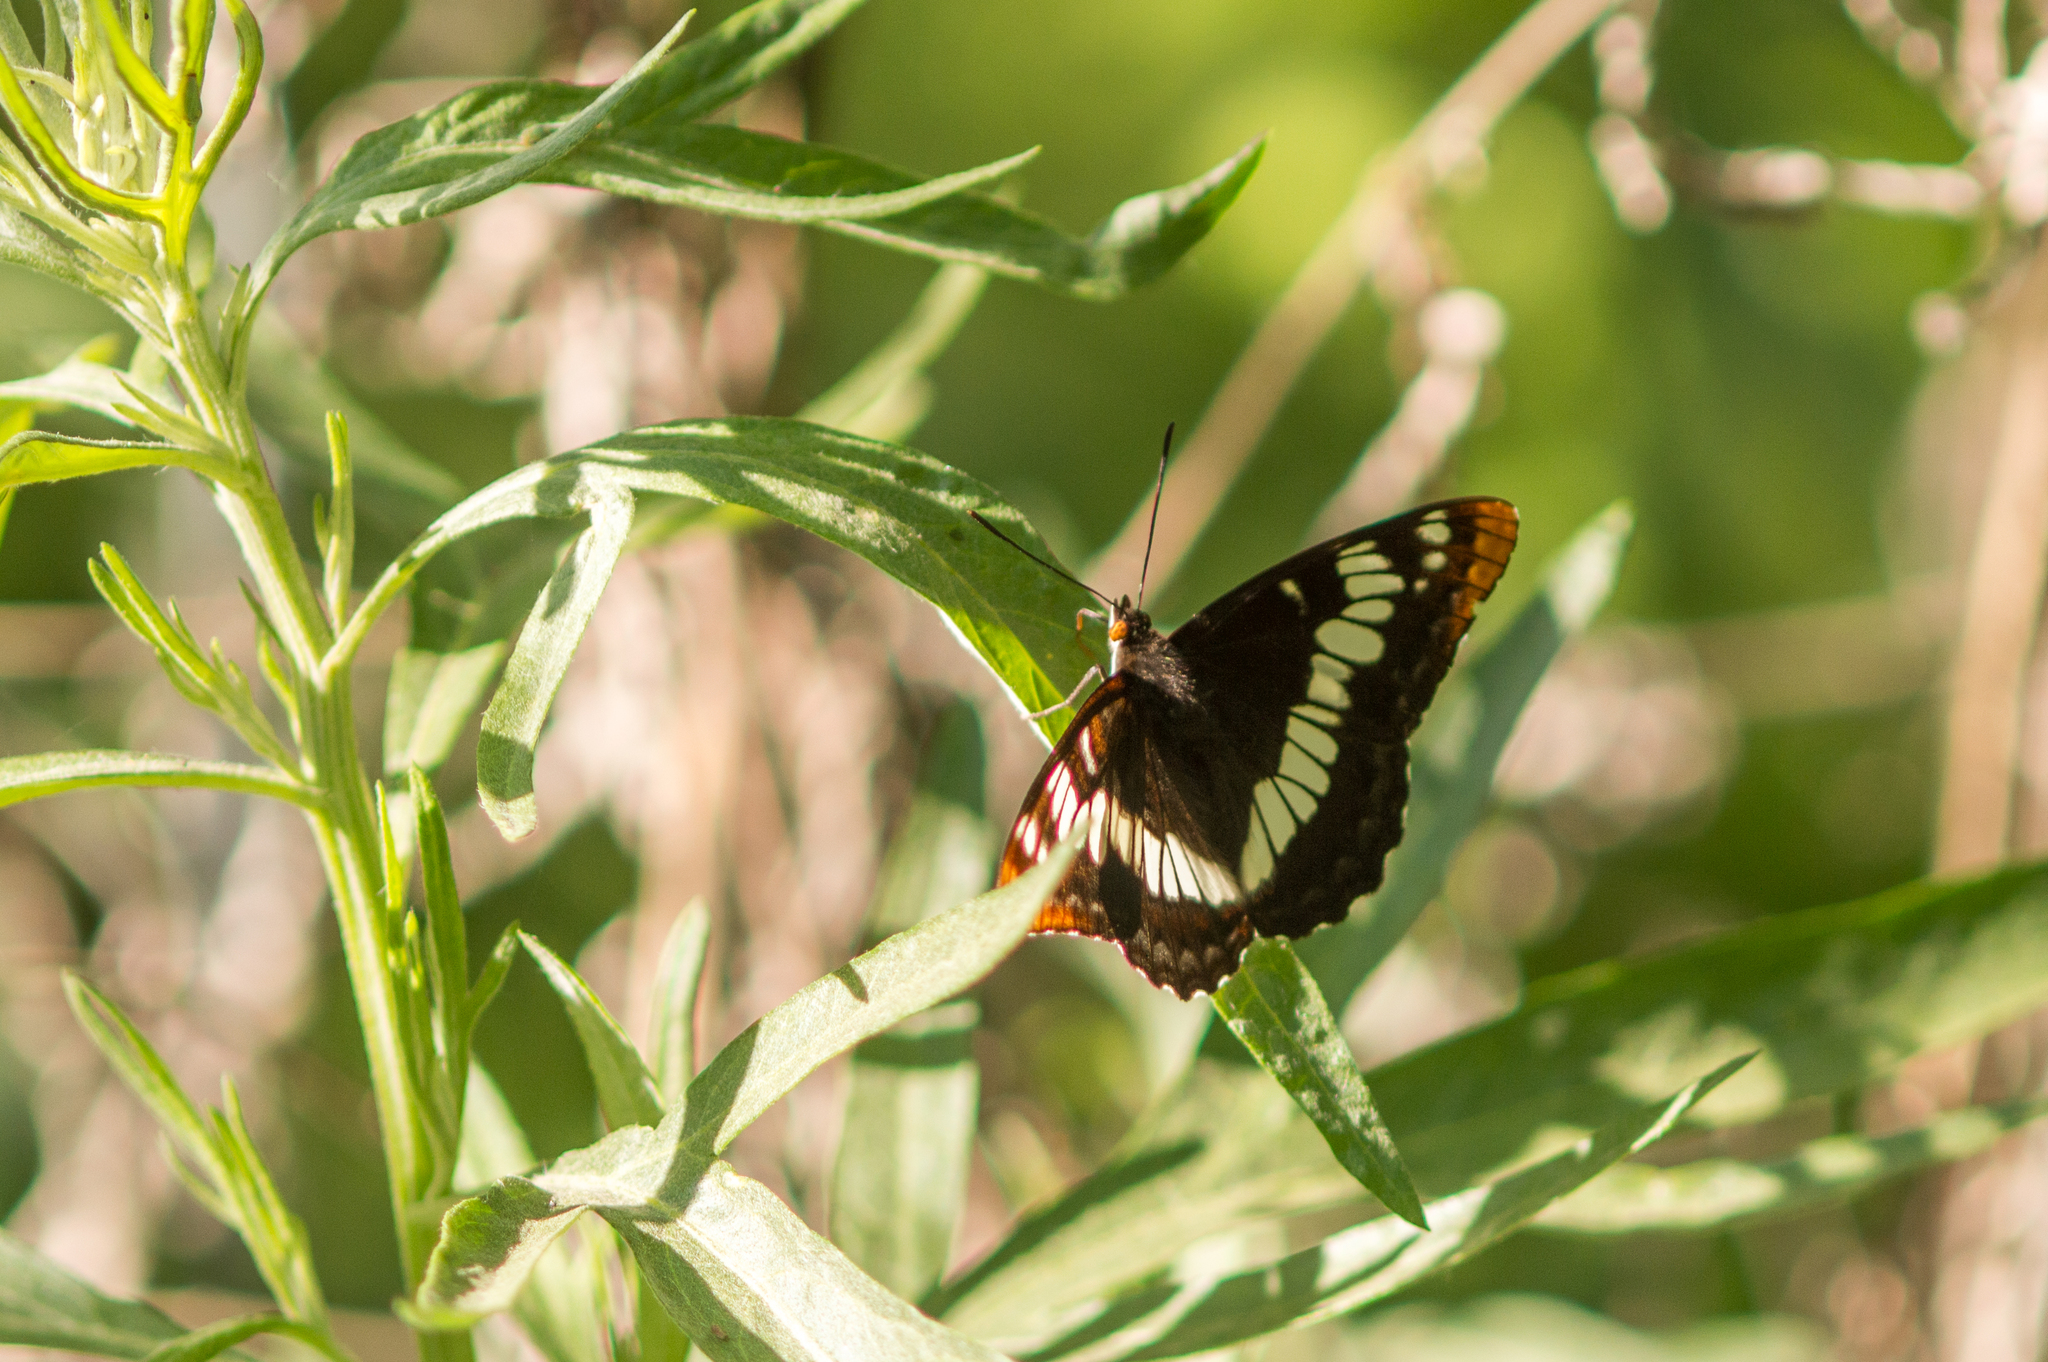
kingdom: Animalia
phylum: Arthropoda
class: Insecta
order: Lepidoptera
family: Nymphalidae
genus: Limenitis
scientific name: Limenitis lorquini
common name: Lorquin's admiral
